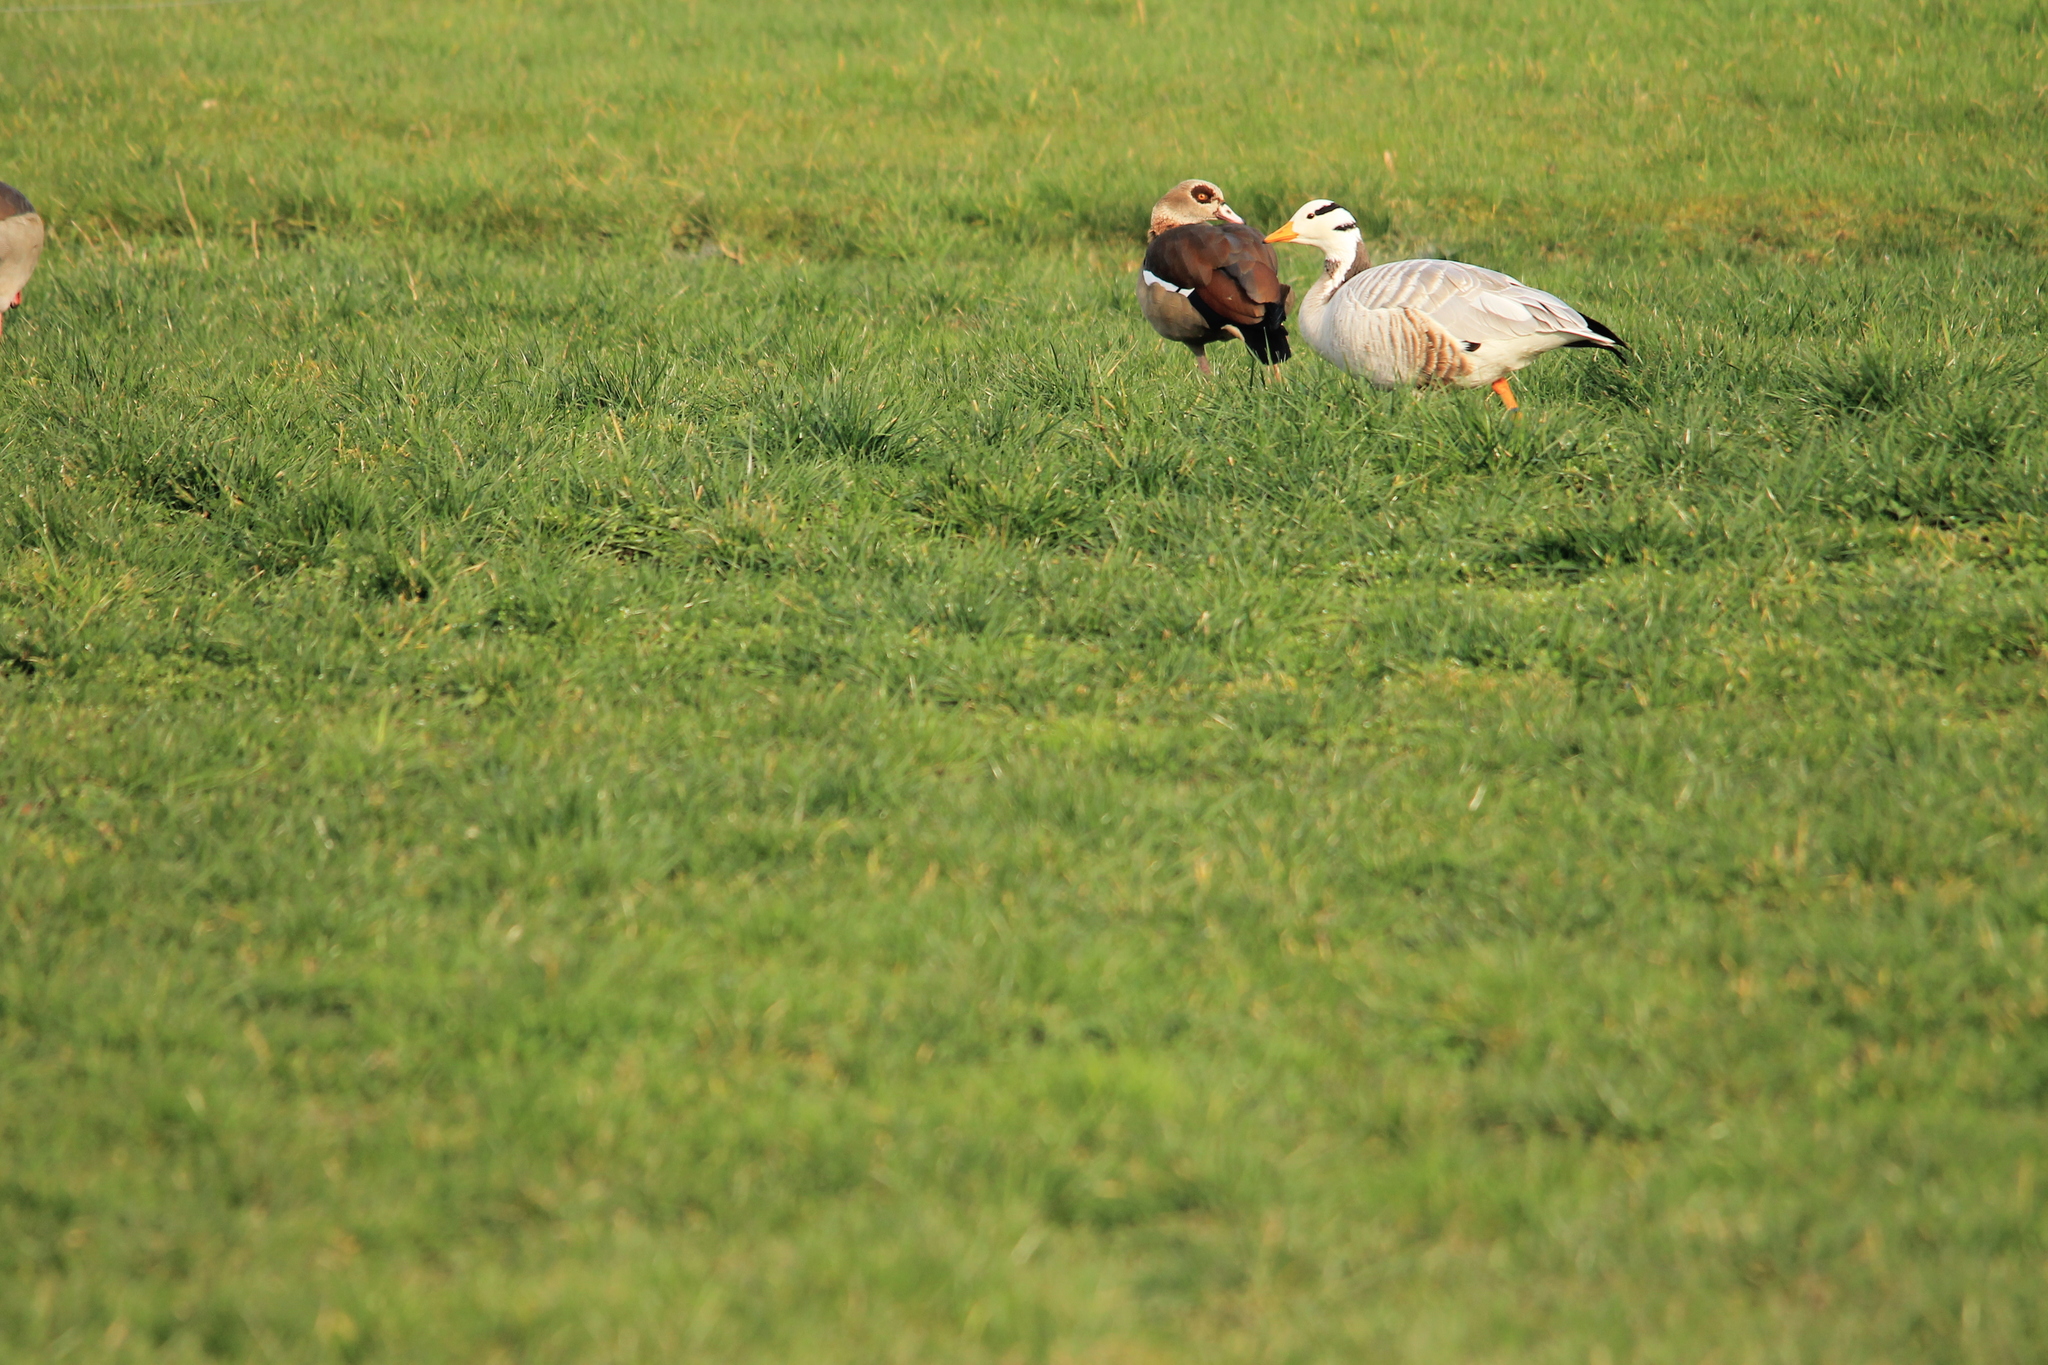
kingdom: Animalia
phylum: Chordata
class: Aves
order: Anseriformes
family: Anatidae
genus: Anser
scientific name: Anser indicus
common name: Bar-headed goose
